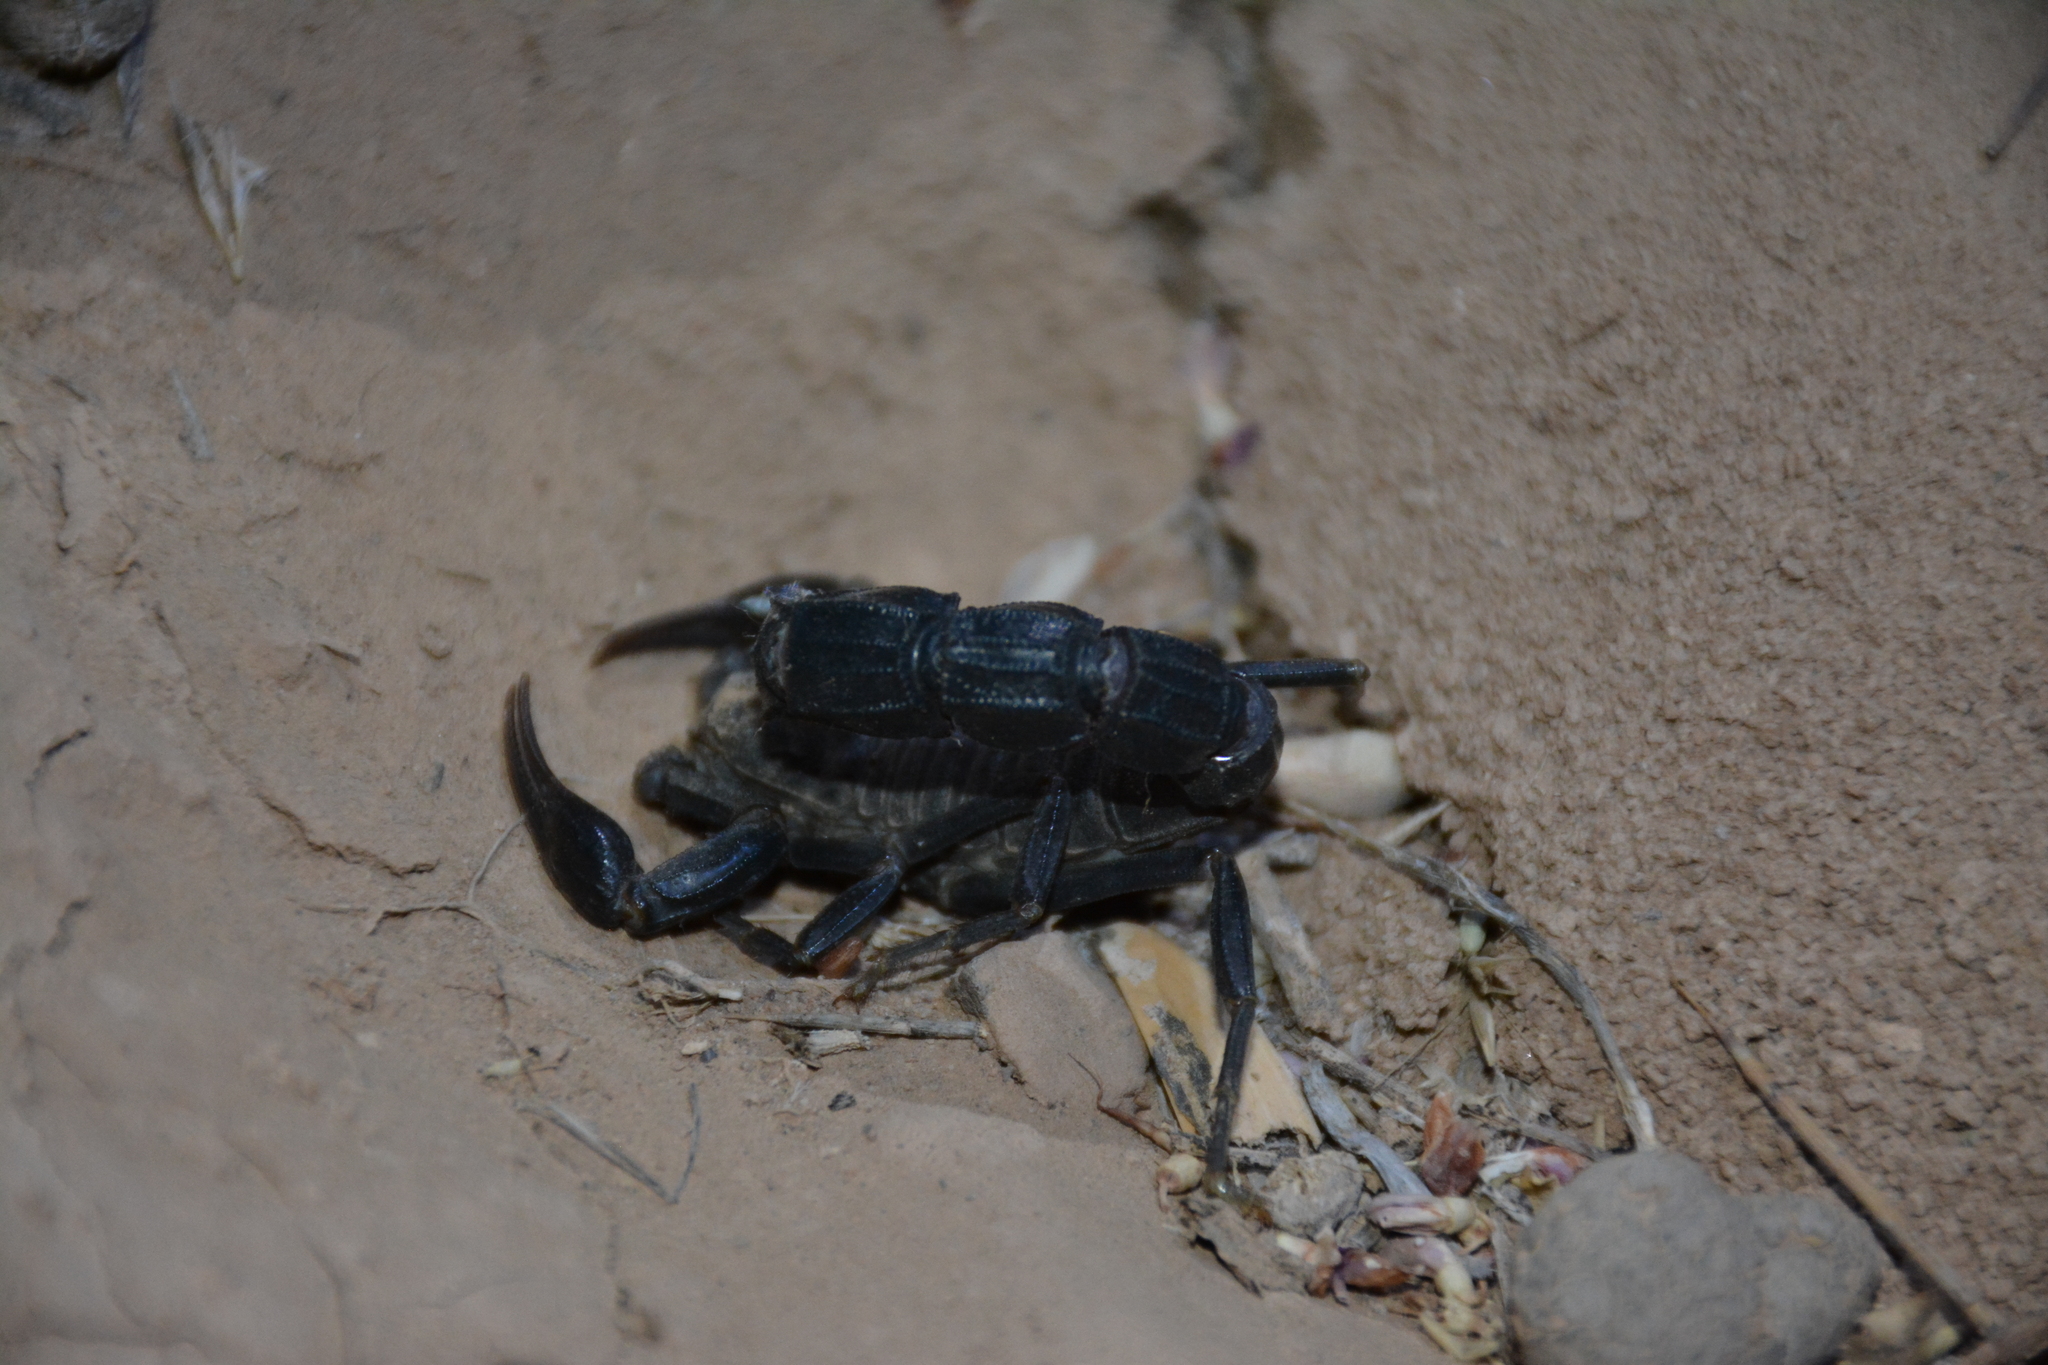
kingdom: Animalia
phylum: Arthropoda
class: Arachnida
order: Scorpiones
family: Buthidae
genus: Androctonus
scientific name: Androctonus crassicauda
